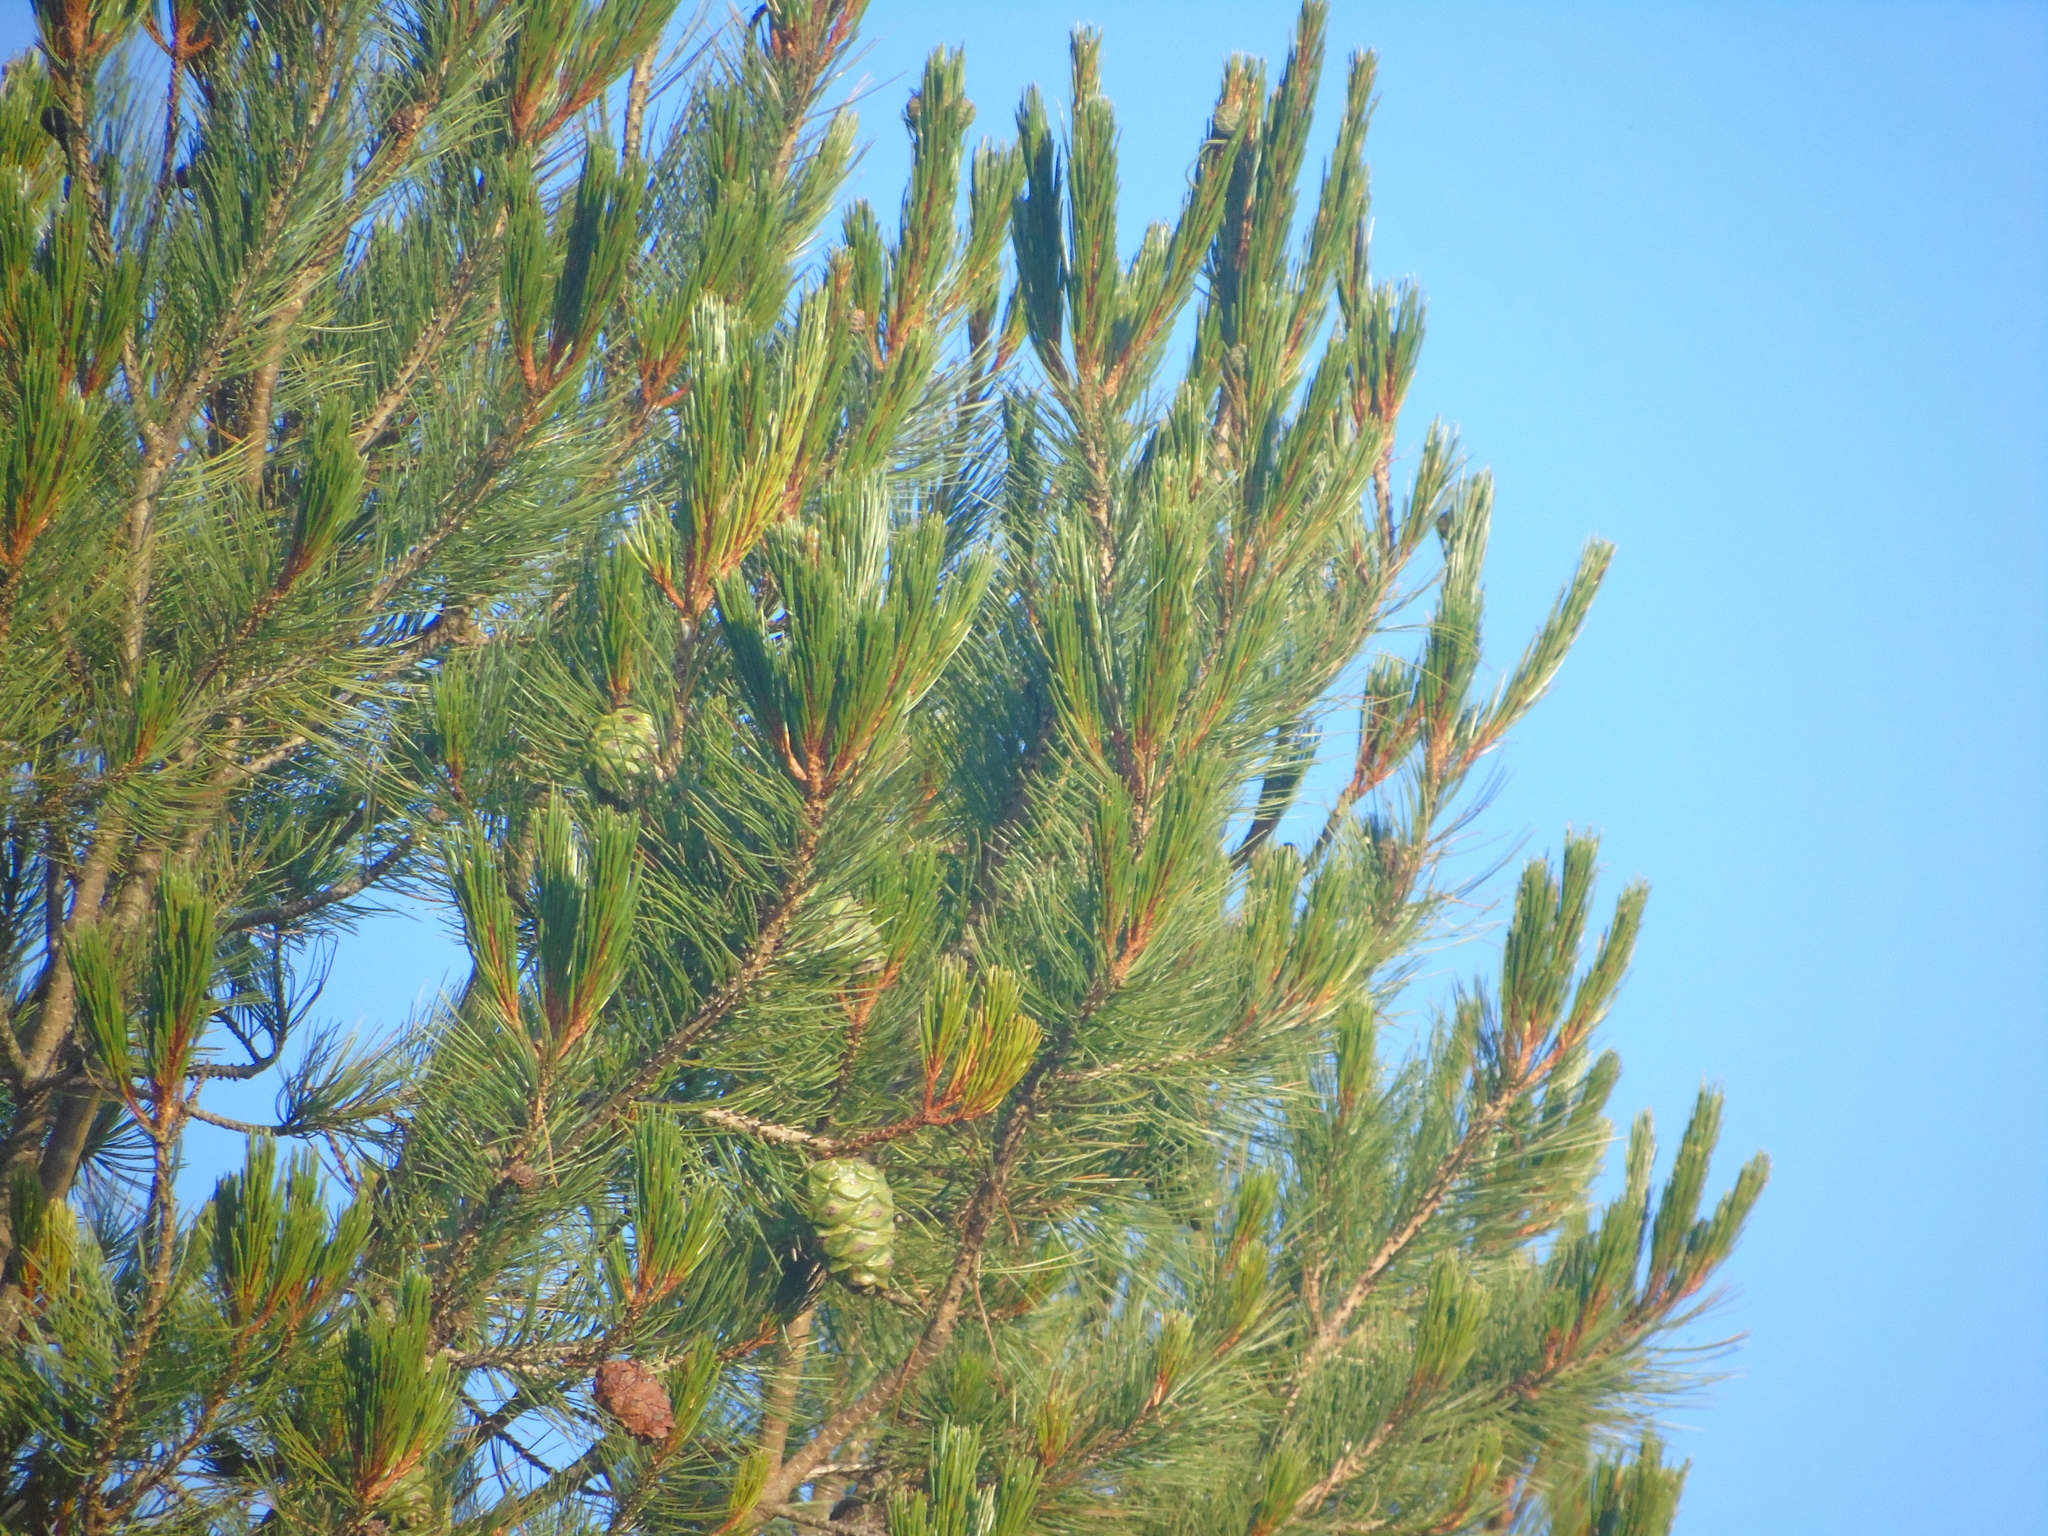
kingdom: Plantae
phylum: Tracheophyta
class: Pinopsida
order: Pinales
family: Pinaceae
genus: Pinus
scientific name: Pinus cembroides
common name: Mexican nut pine
